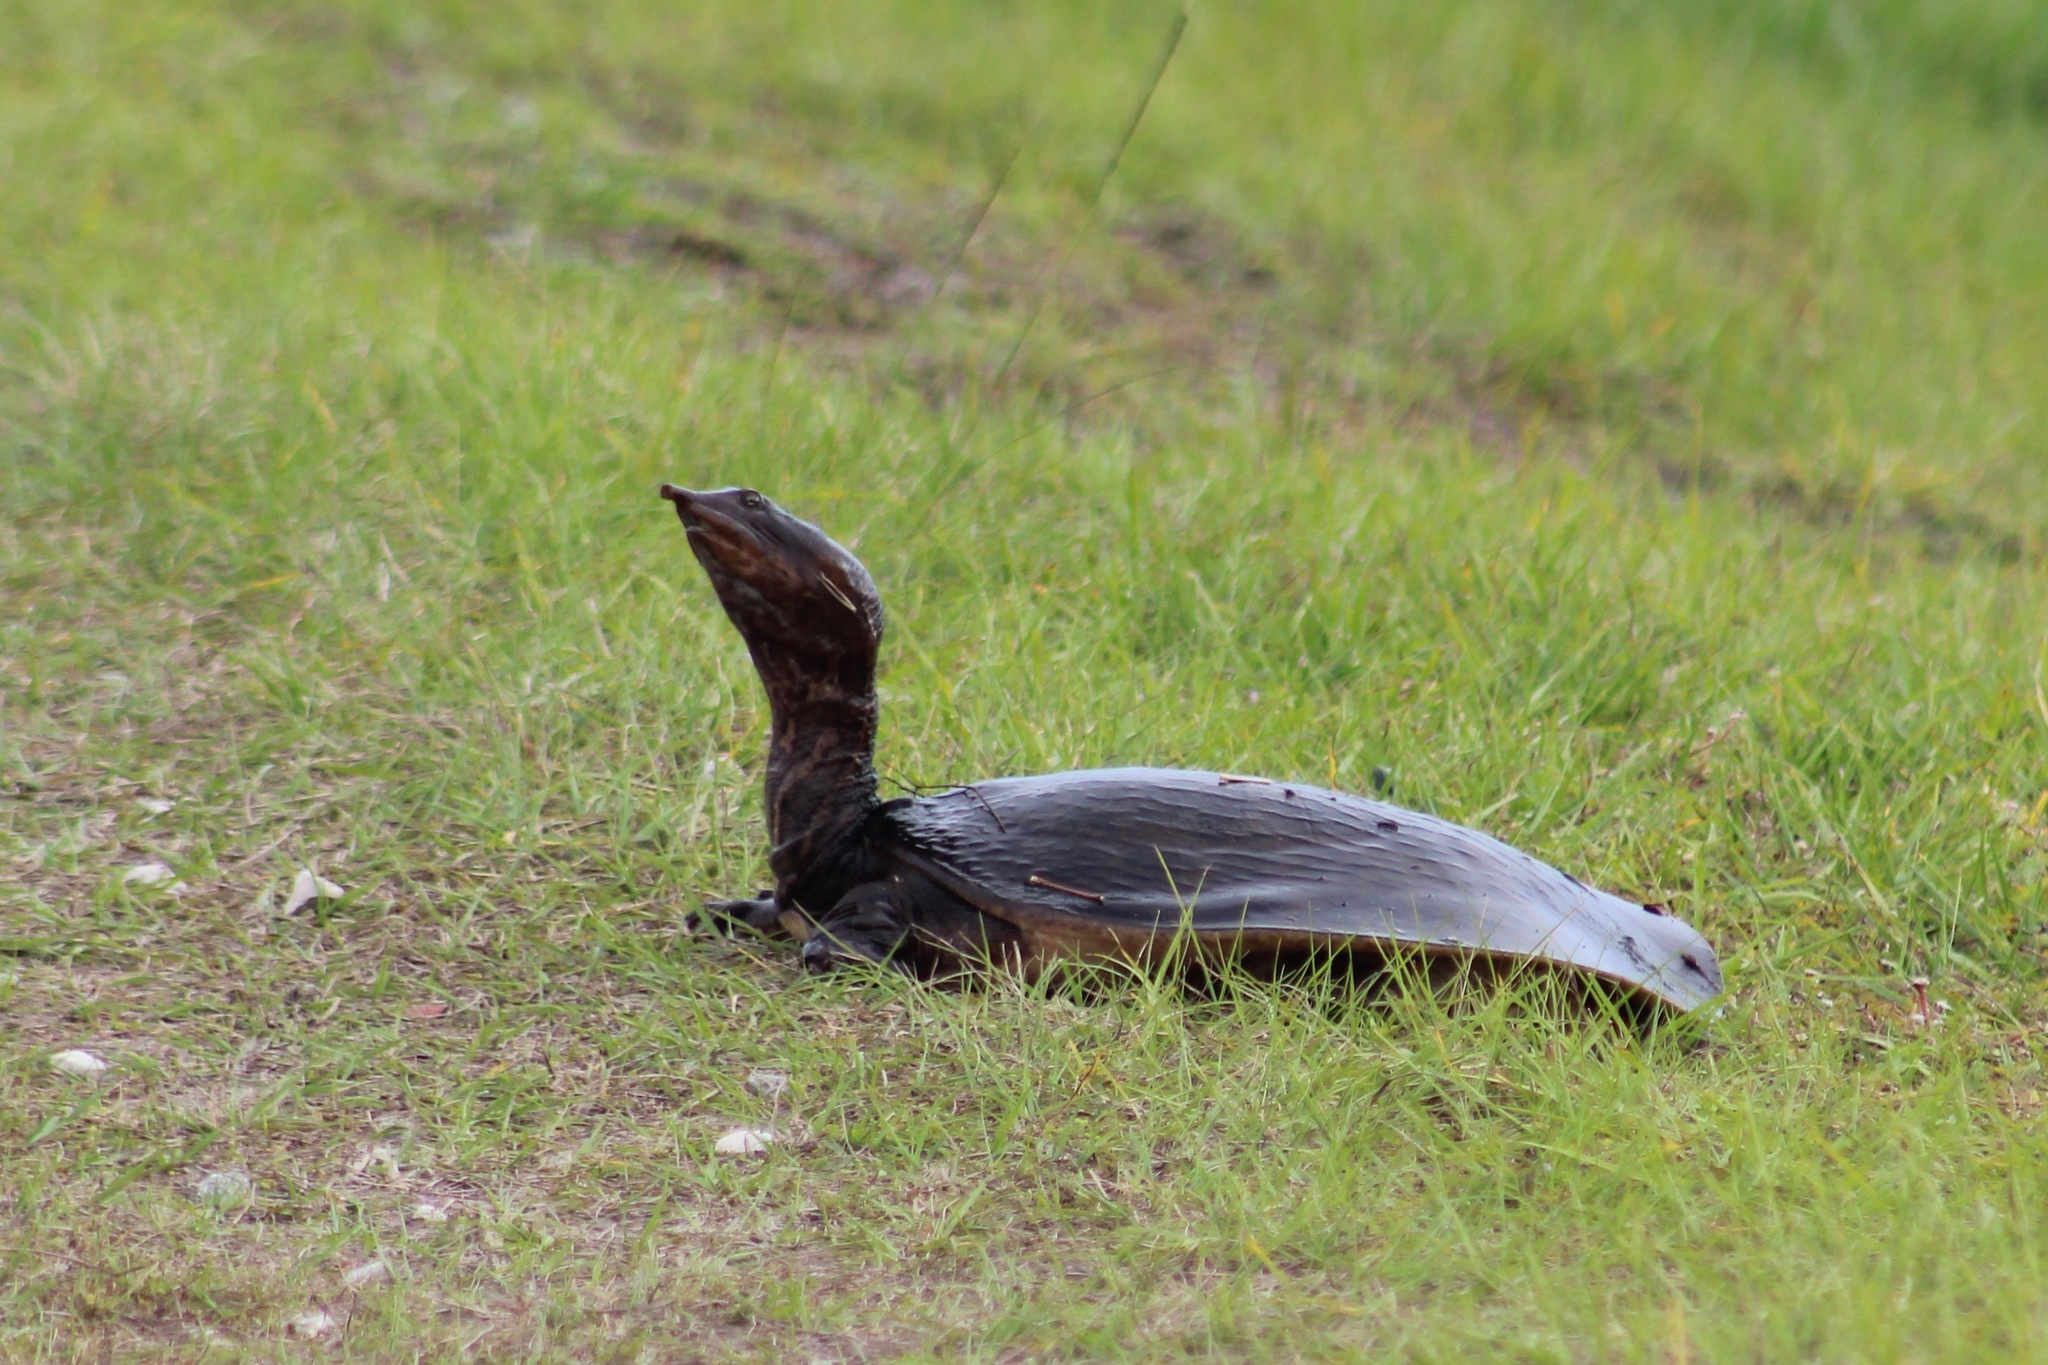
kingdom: Animalia
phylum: Chordata
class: Testudines
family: Trionychidae
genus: Apalone
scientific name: Apalone ferox
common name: Florida softshell turtle
